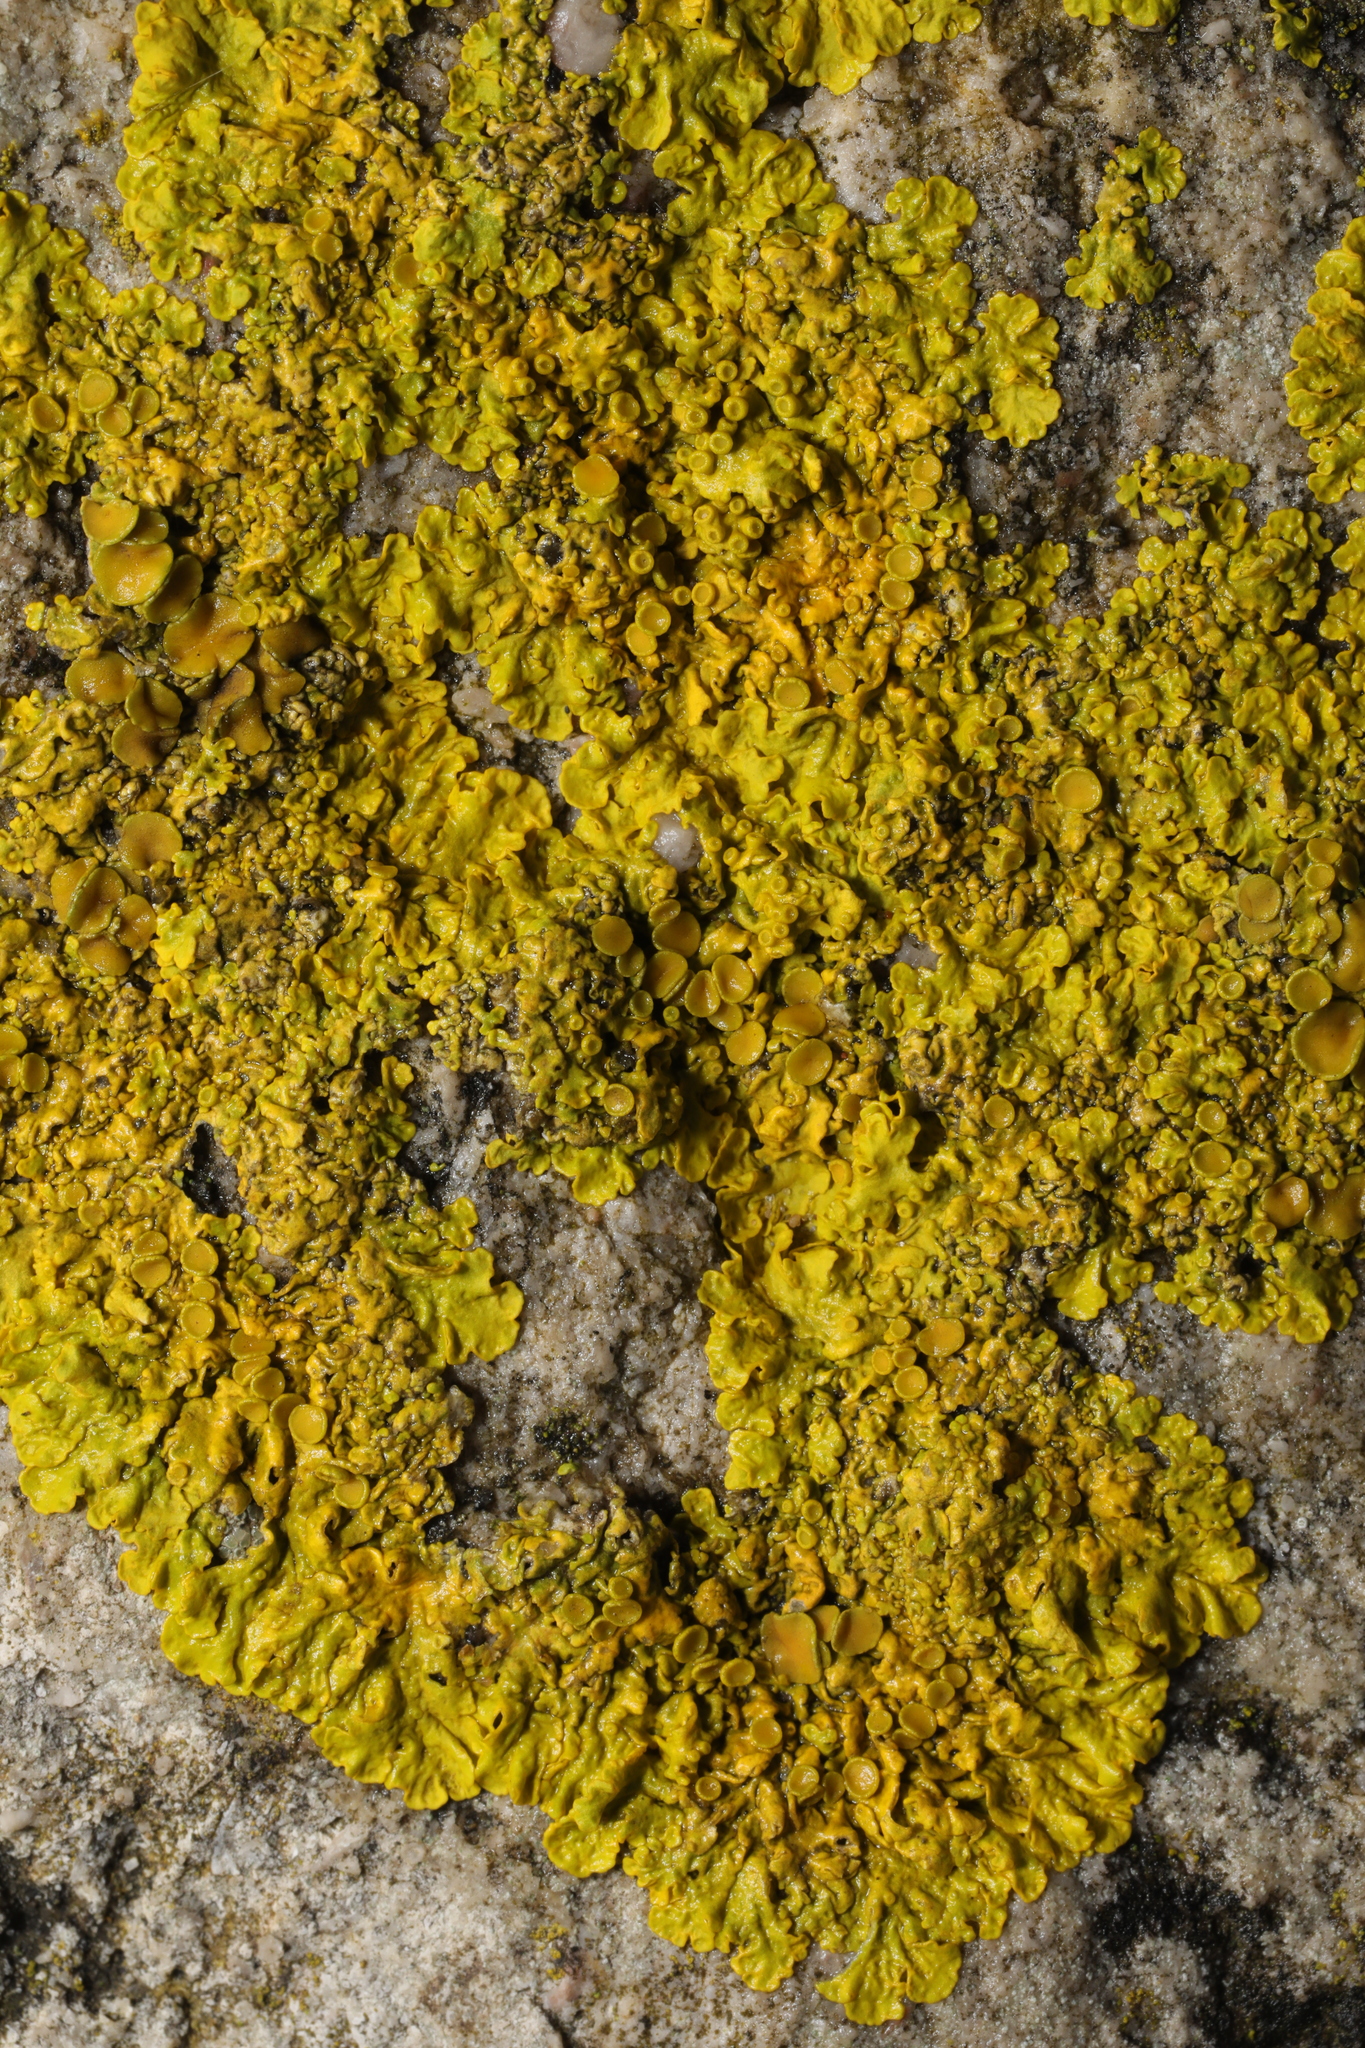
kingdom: Fungi
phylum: Ascomycota
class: Lecanoromycetes
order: Teloschistales
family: Teloschistaceae
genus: Xanthoria
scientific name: Xanthoria parietina
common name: Common orange lichen
